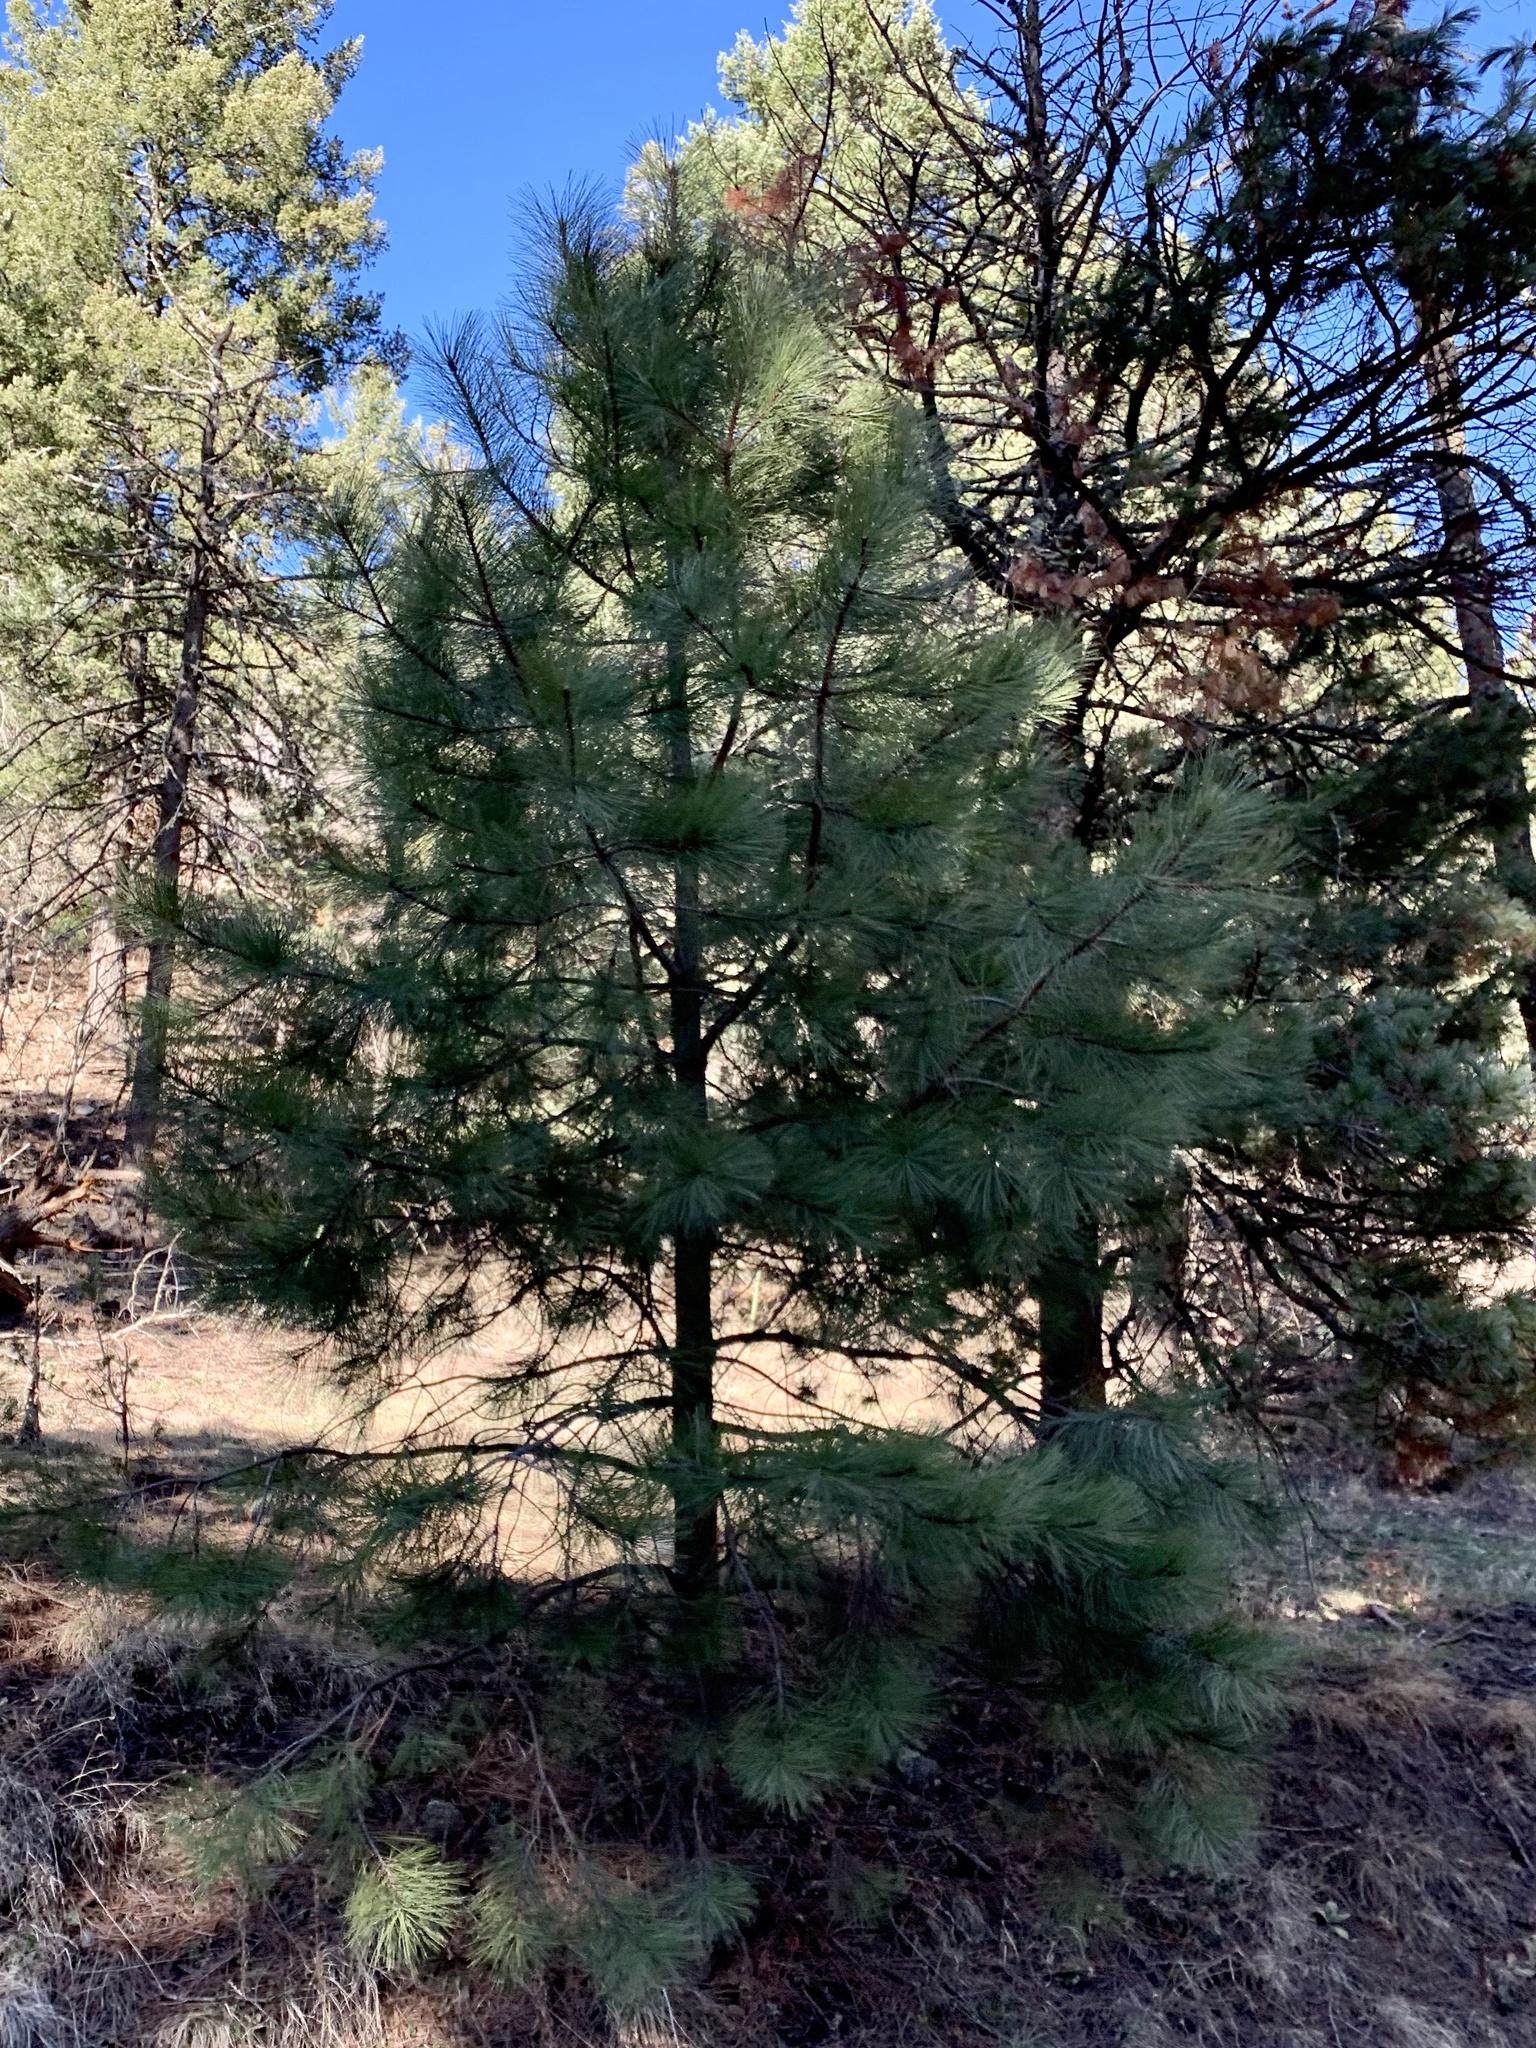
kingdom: Plantae
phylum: Tracheophyta
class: Pinopsida
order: Pinales
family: Pinaceae
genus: Pinus
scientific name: Pinus ponderosa
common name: Western yellow-pine
